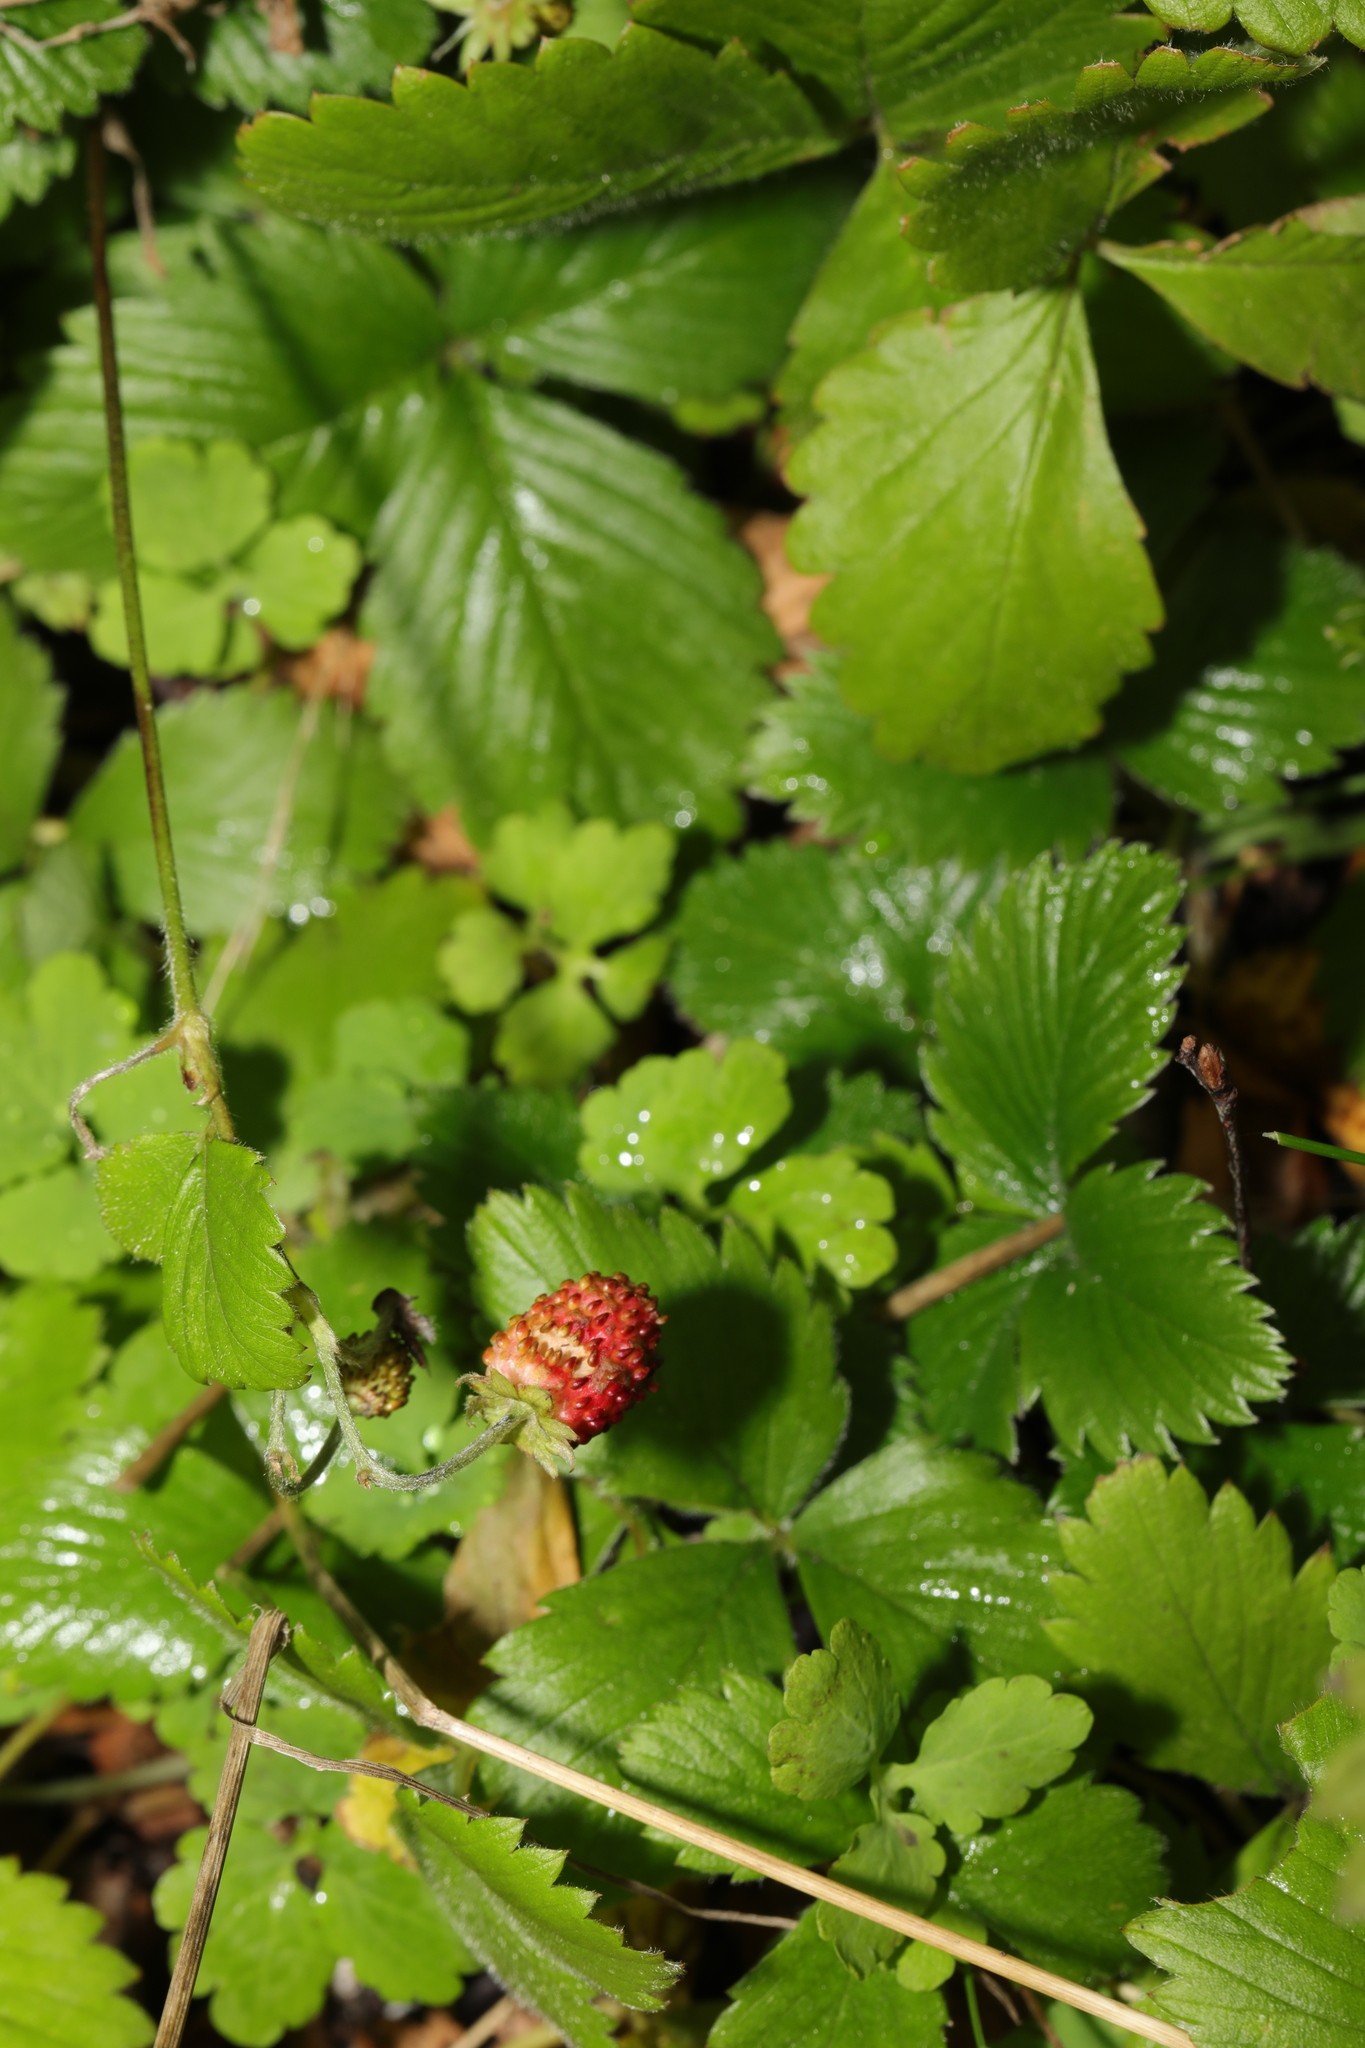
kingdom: Plantae
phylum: Tracheophyta
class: Magnoliopsida
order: Rosales
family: Rosaceae
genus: Fragaria
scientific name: Fragaria vesca
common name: Wild strawberry
